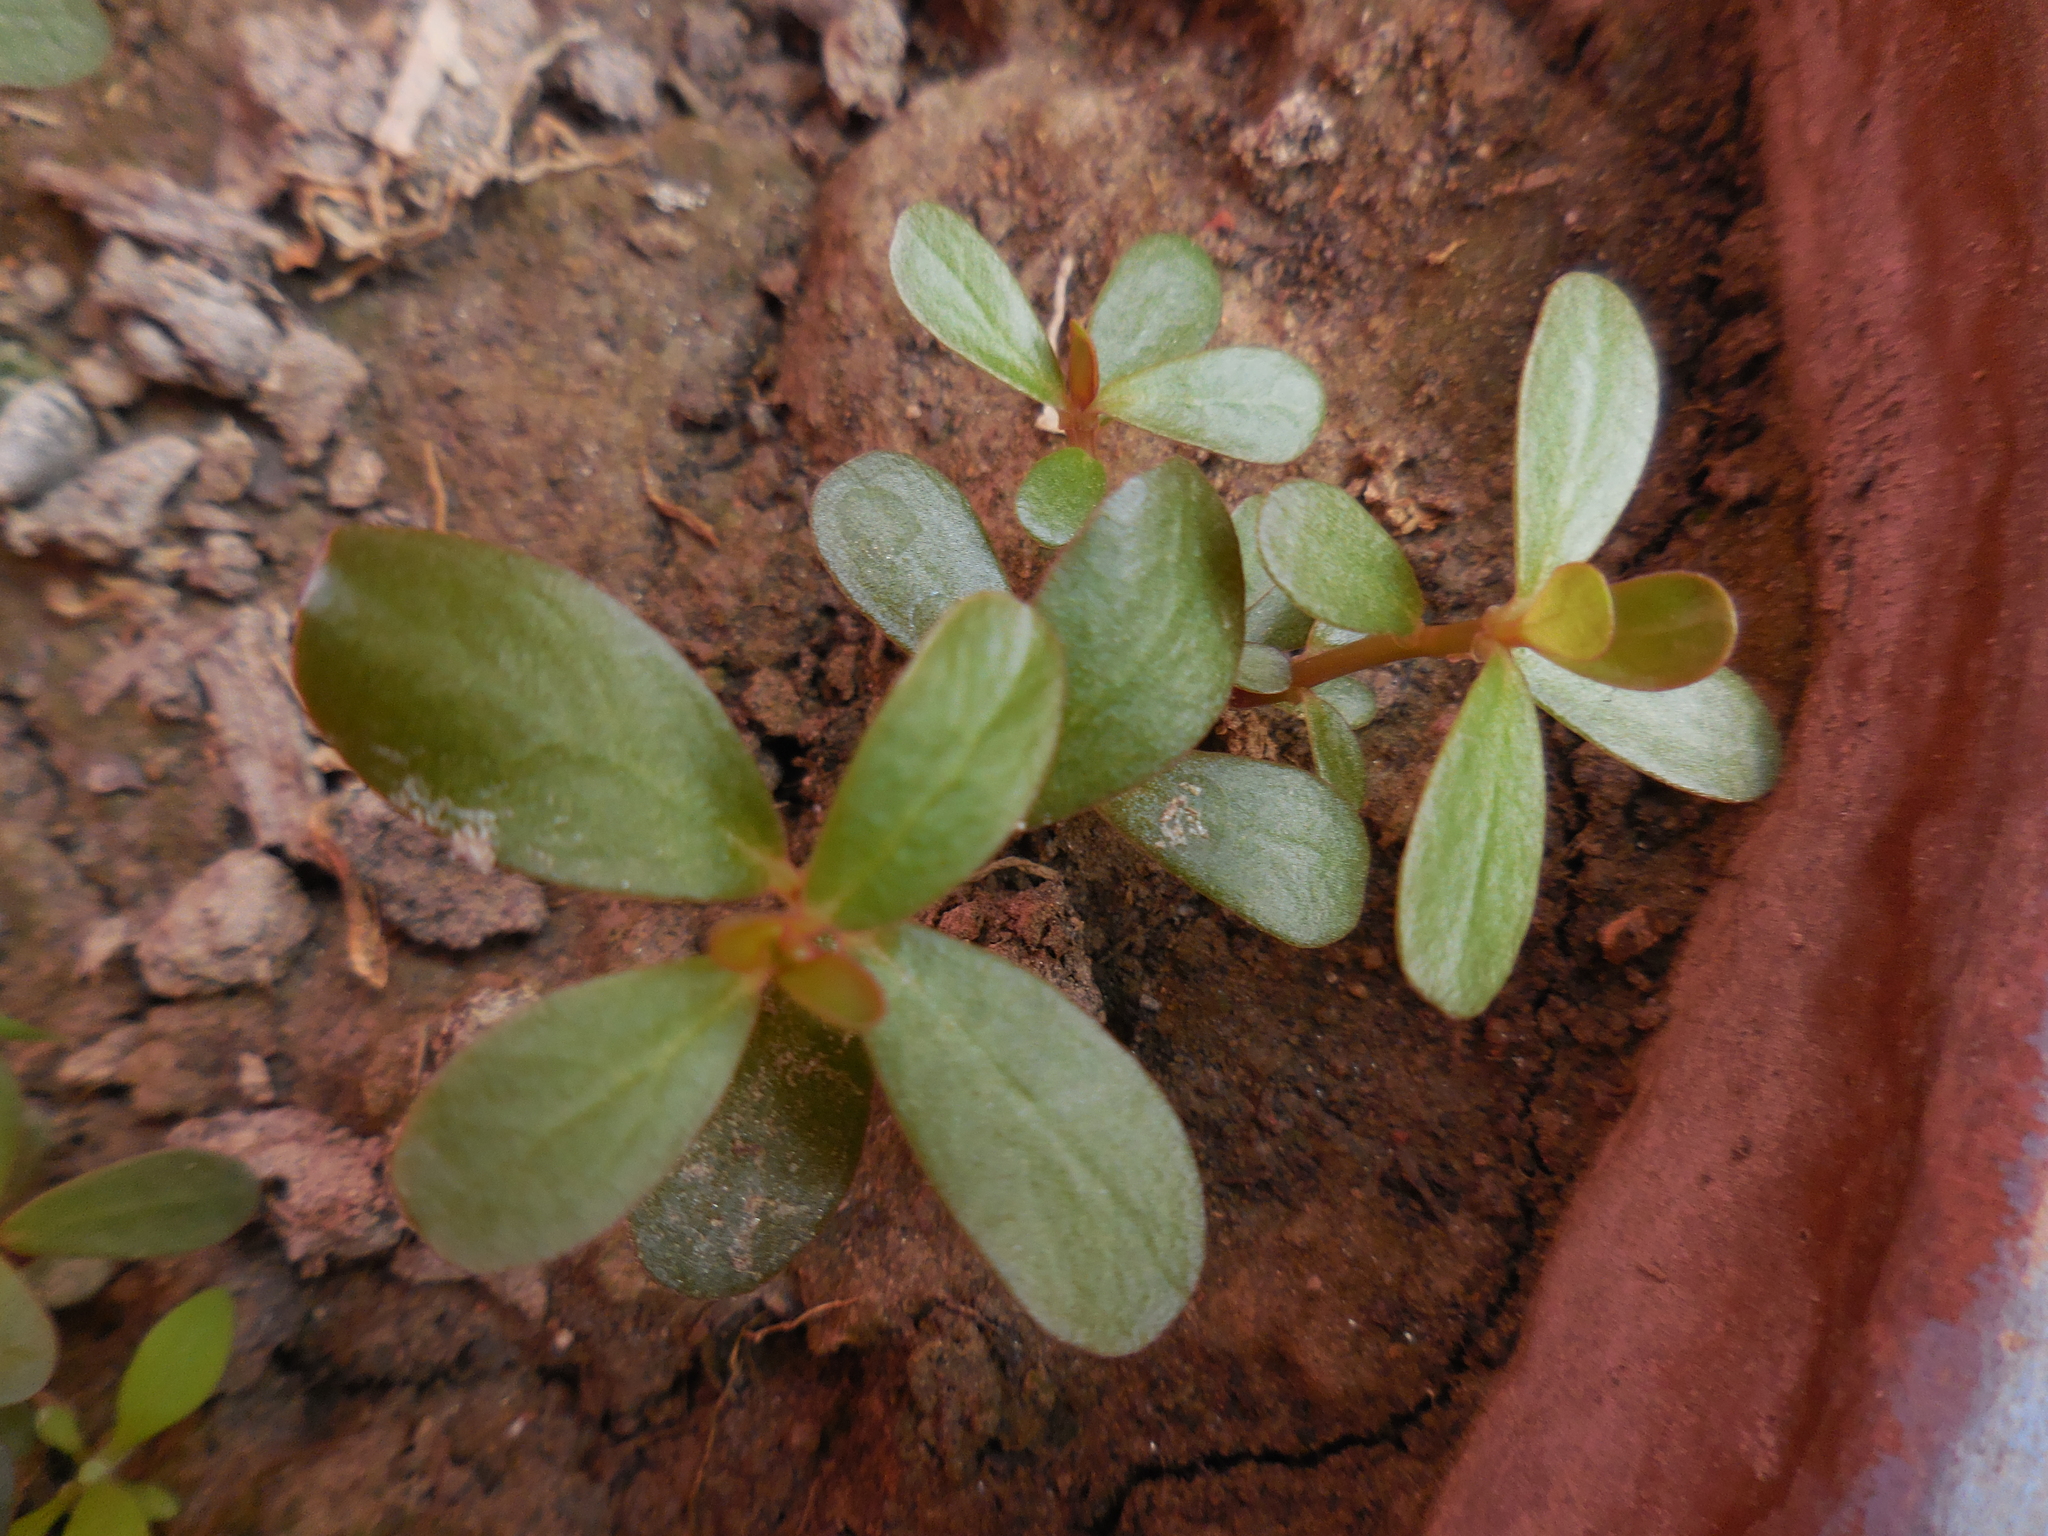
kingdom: Plantae
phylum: Tracheophyta
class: Magnoliopsida
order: Caryophyllales
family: Portulacaceae
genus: Portulaca
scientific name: Portulaca oleracea
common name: Common purslane
